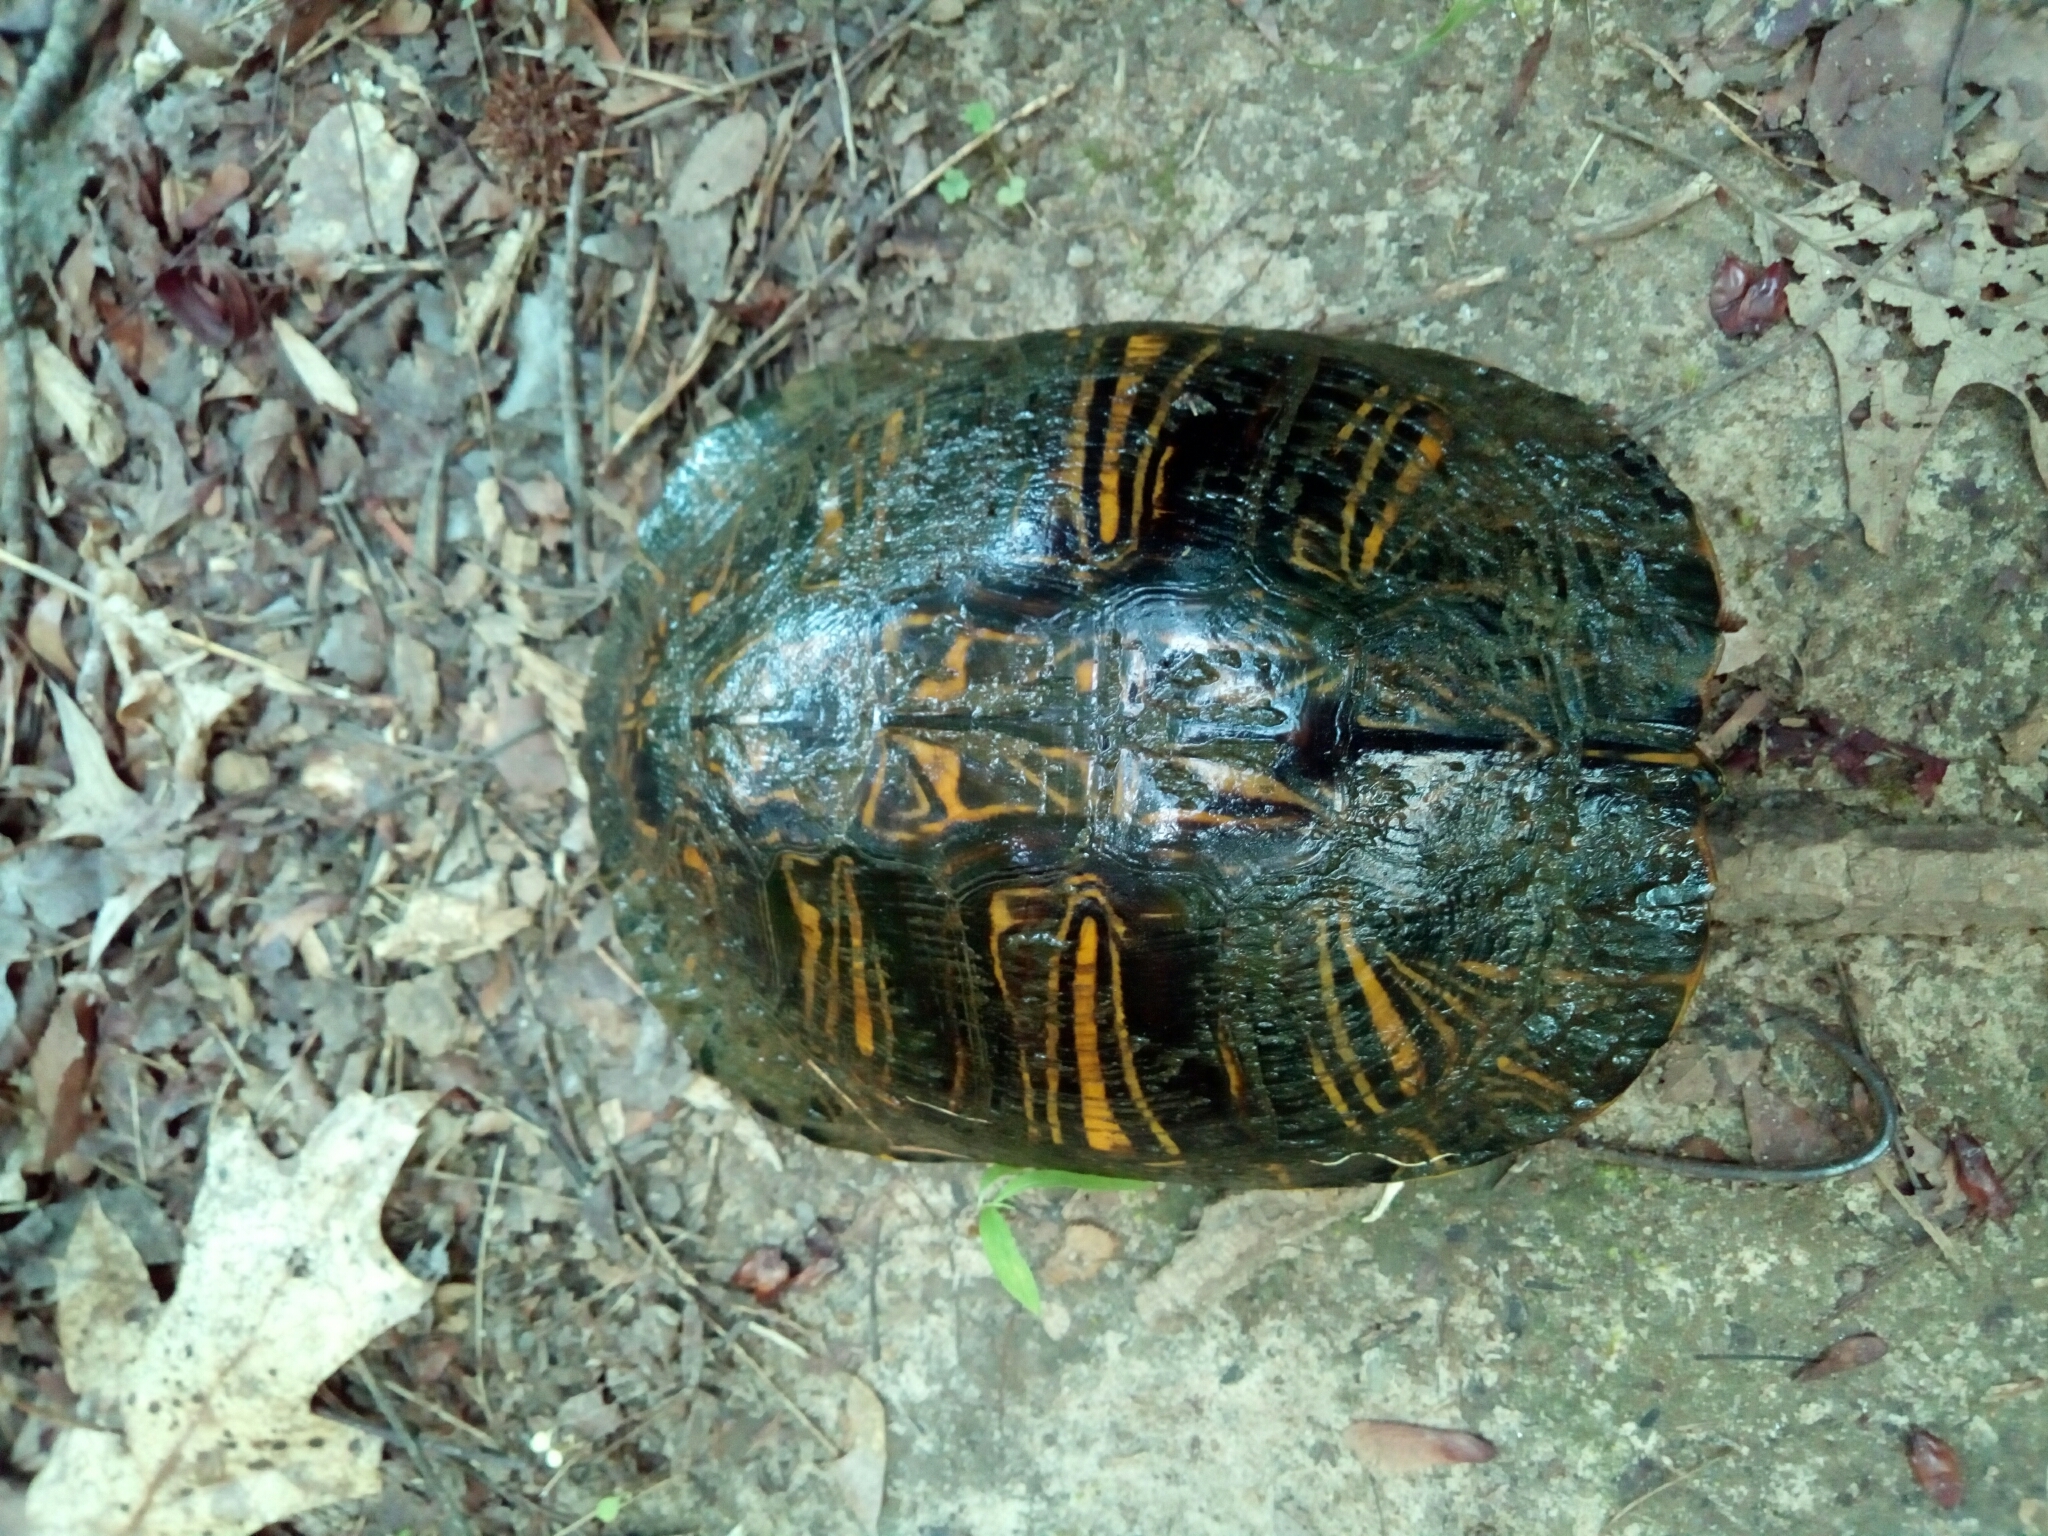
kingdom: Animalia
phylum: Chordata
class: Testudines
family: Emydidae
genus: Trachemys
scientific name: Trachemys scripta
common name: Slider
